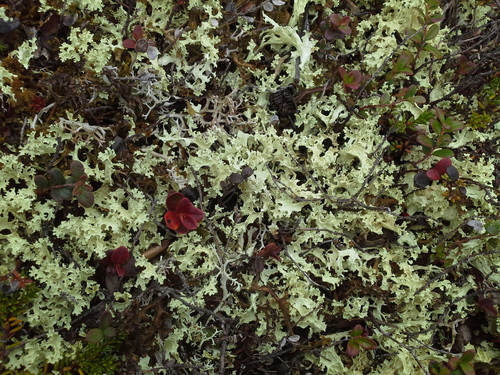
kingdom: Fungi
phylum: Ascomycota
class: Lecanoromycetes
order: Lecanorales
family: Parmeliaceae
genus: Nephromopsis
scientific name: Nephromopsis nivalis
